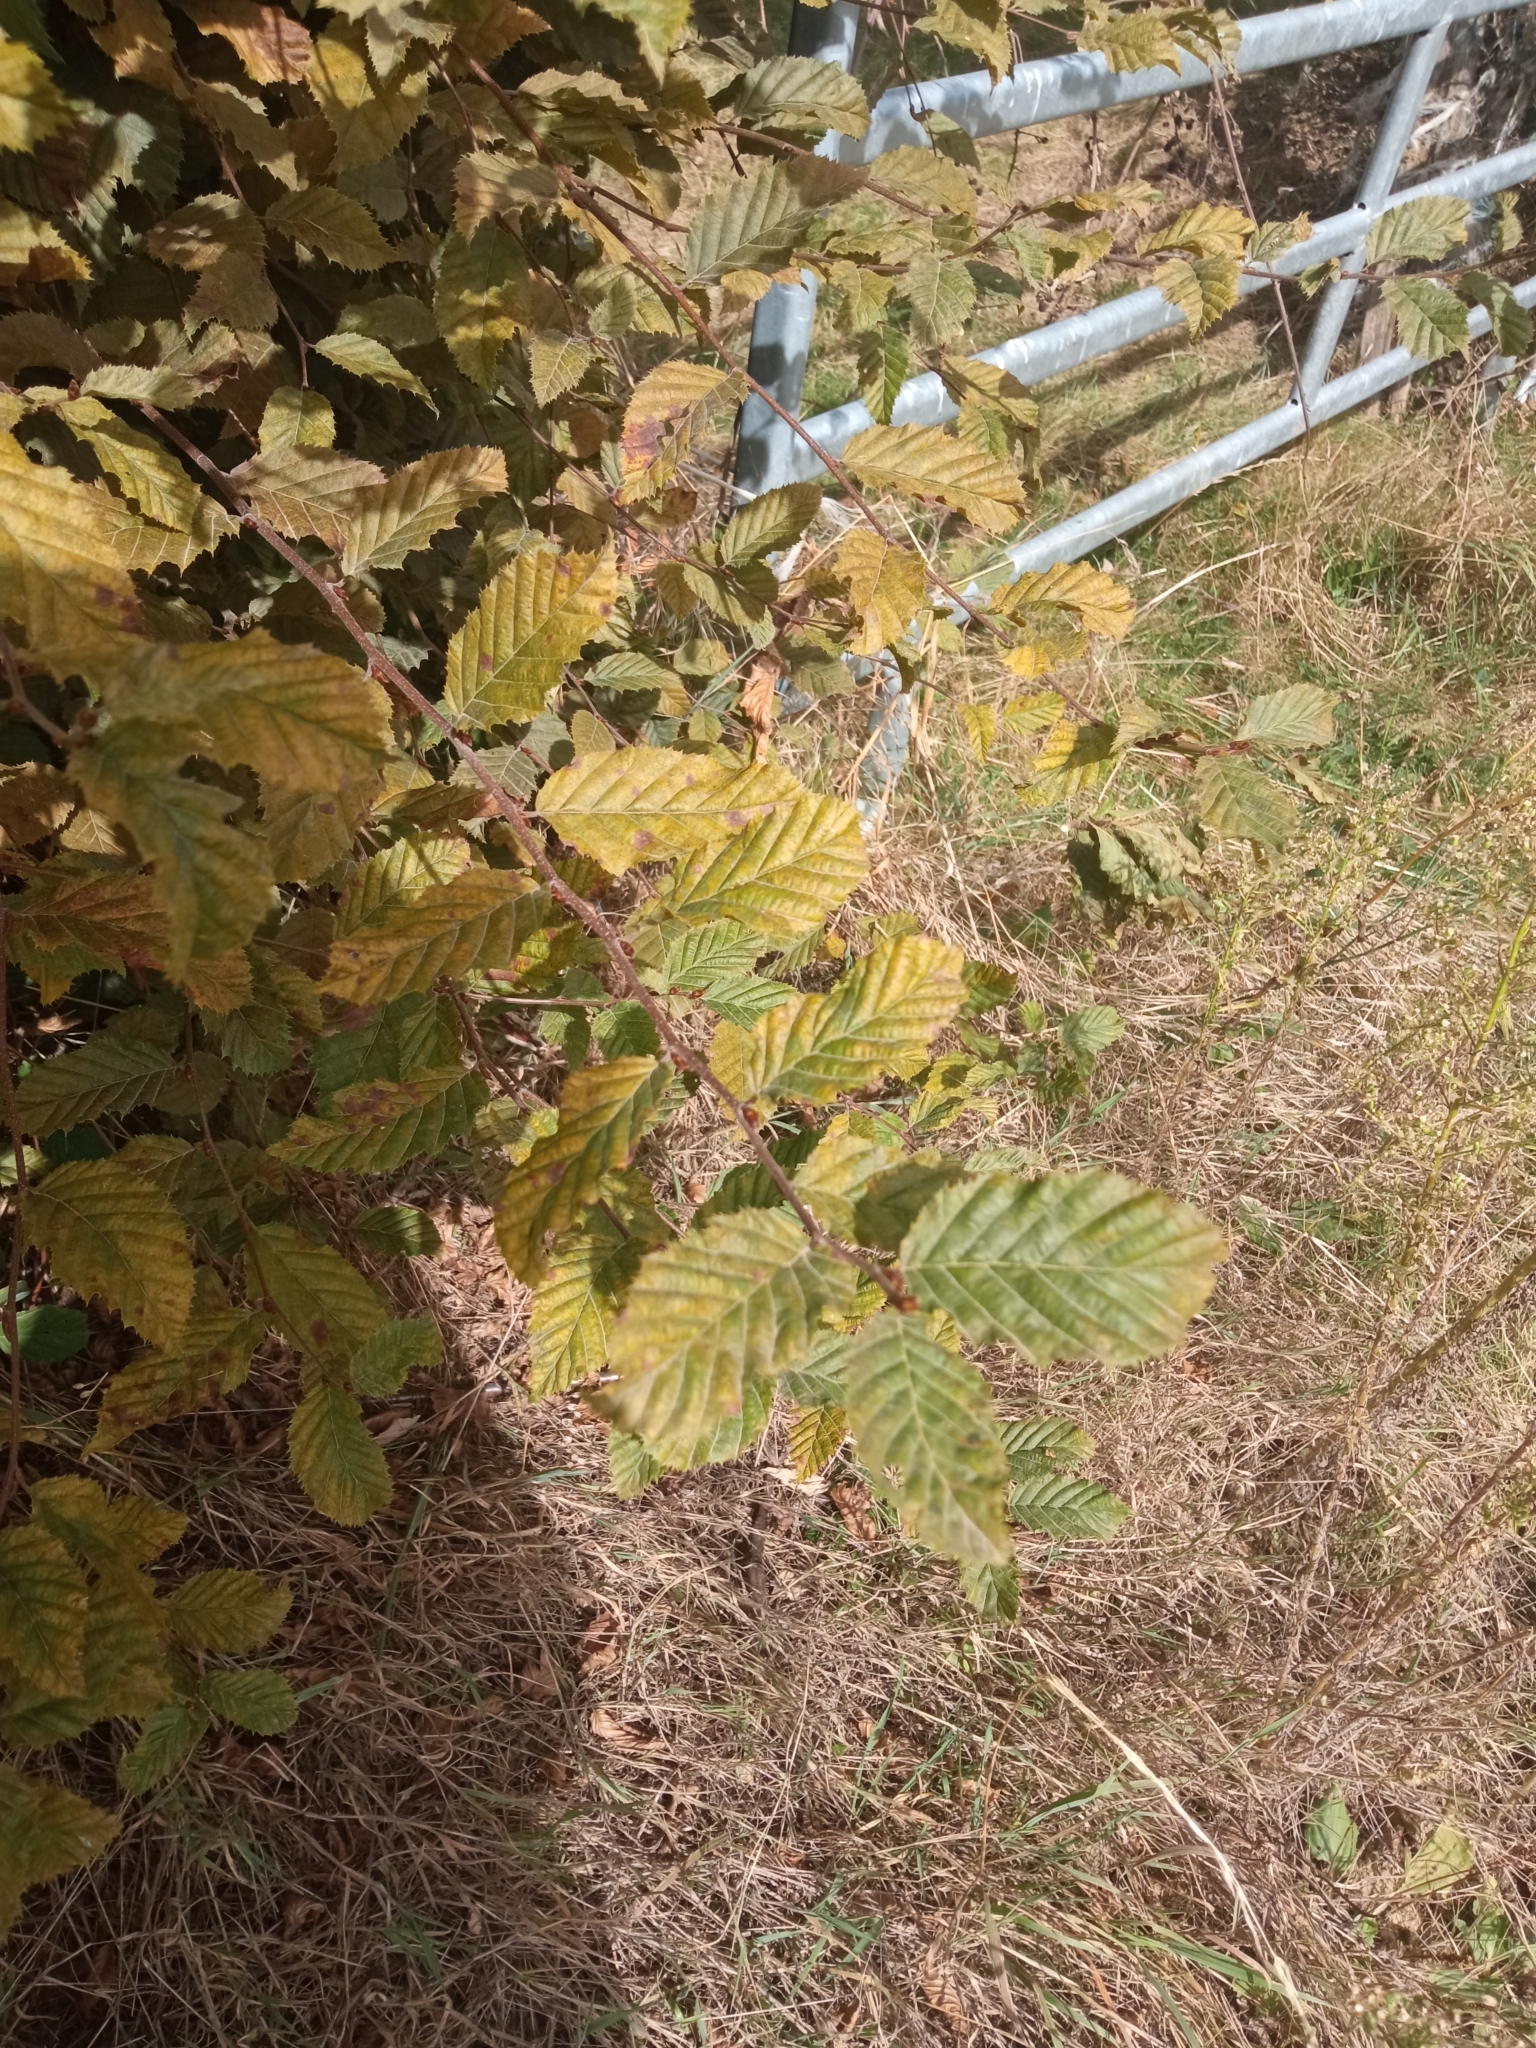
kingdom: Plantae
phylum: Tracheophyta
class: Magnoliopsida
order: Fagales
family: Betulaceae
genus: Carpinus
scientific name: Carpinus betulus
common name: Hornbeam
